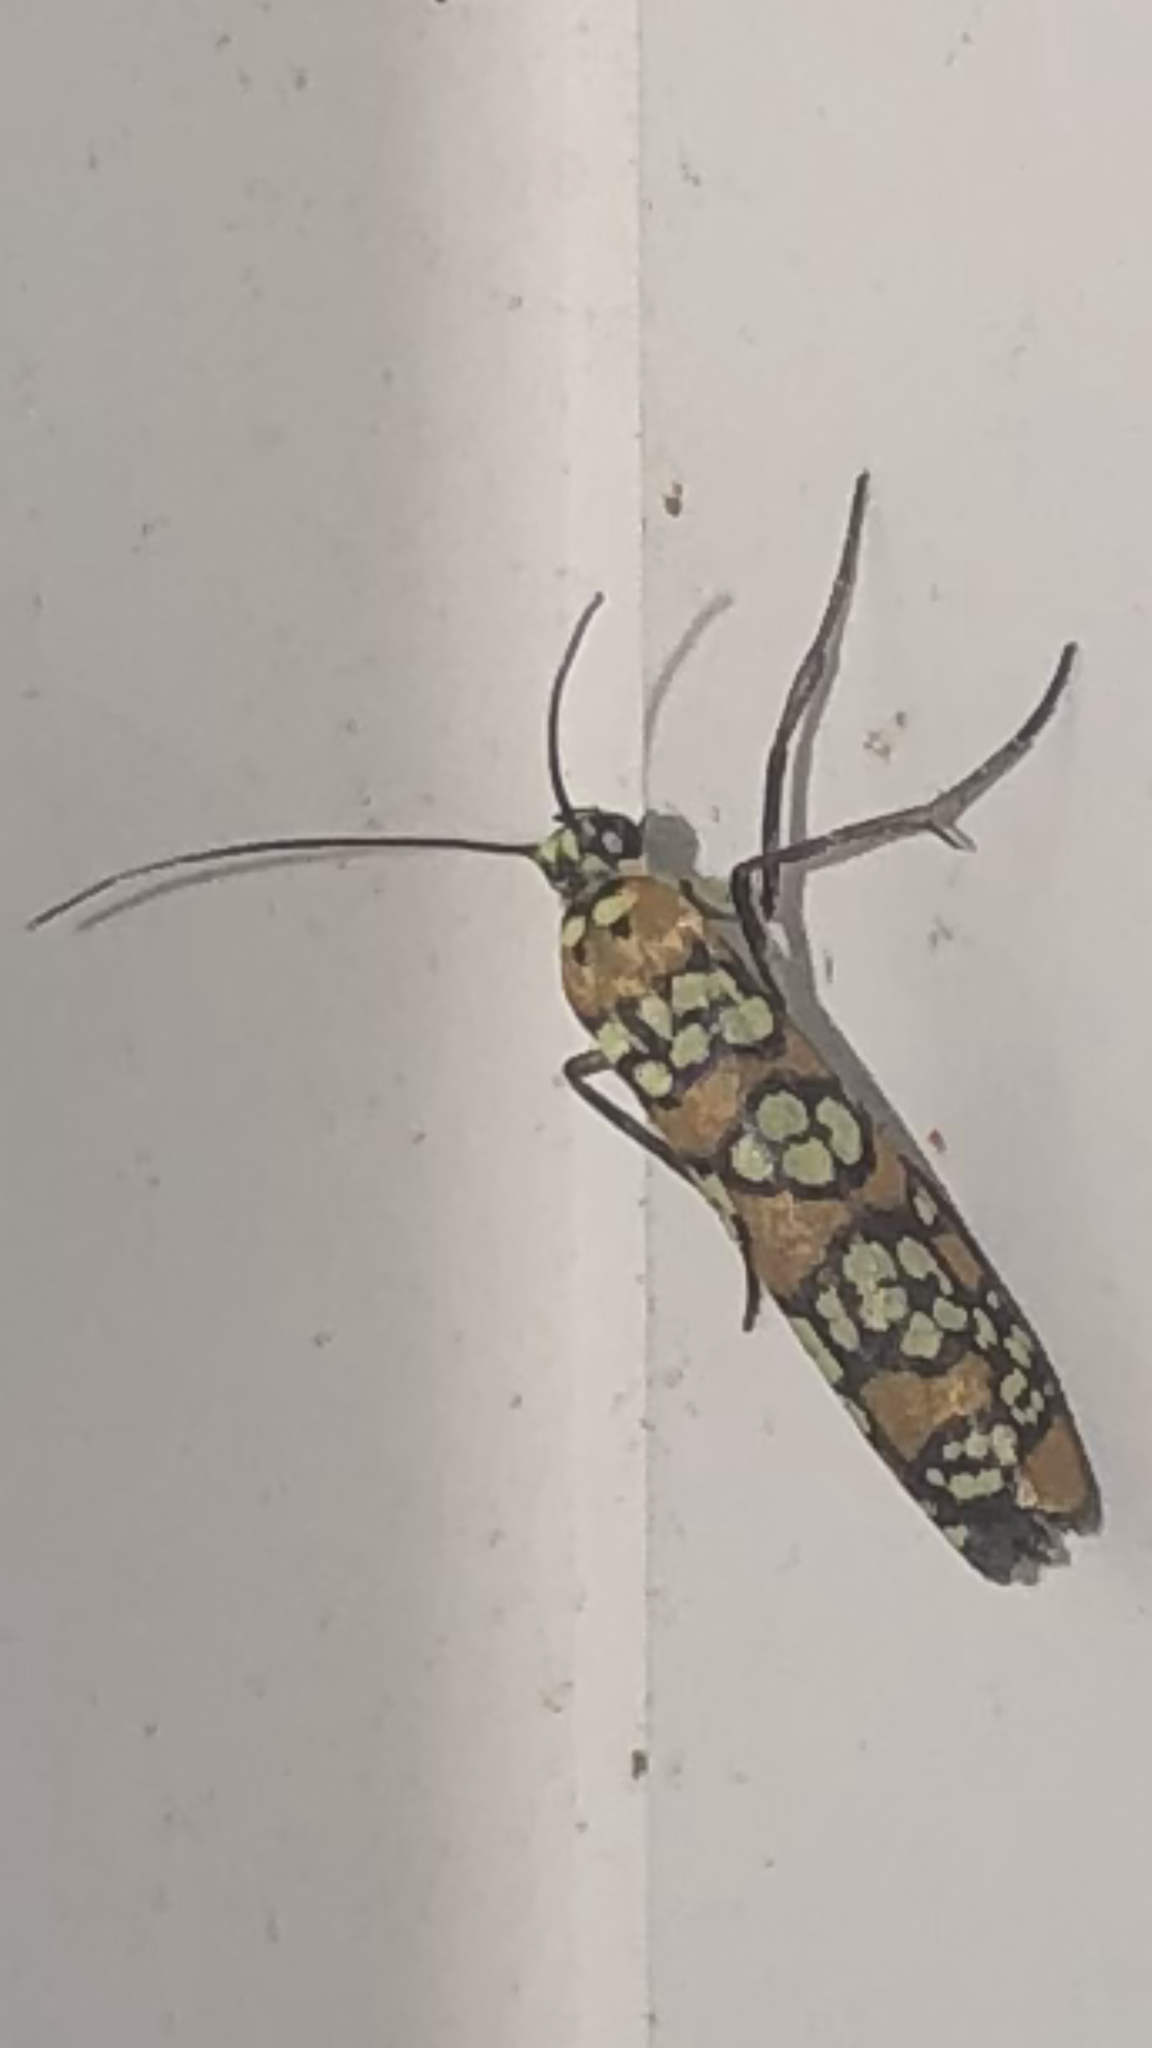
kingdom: Animalia
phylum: Arthropoda
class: Insecta
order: Lepidoptera
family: Attevidae
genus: Atteva
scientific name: Atteva punctella
